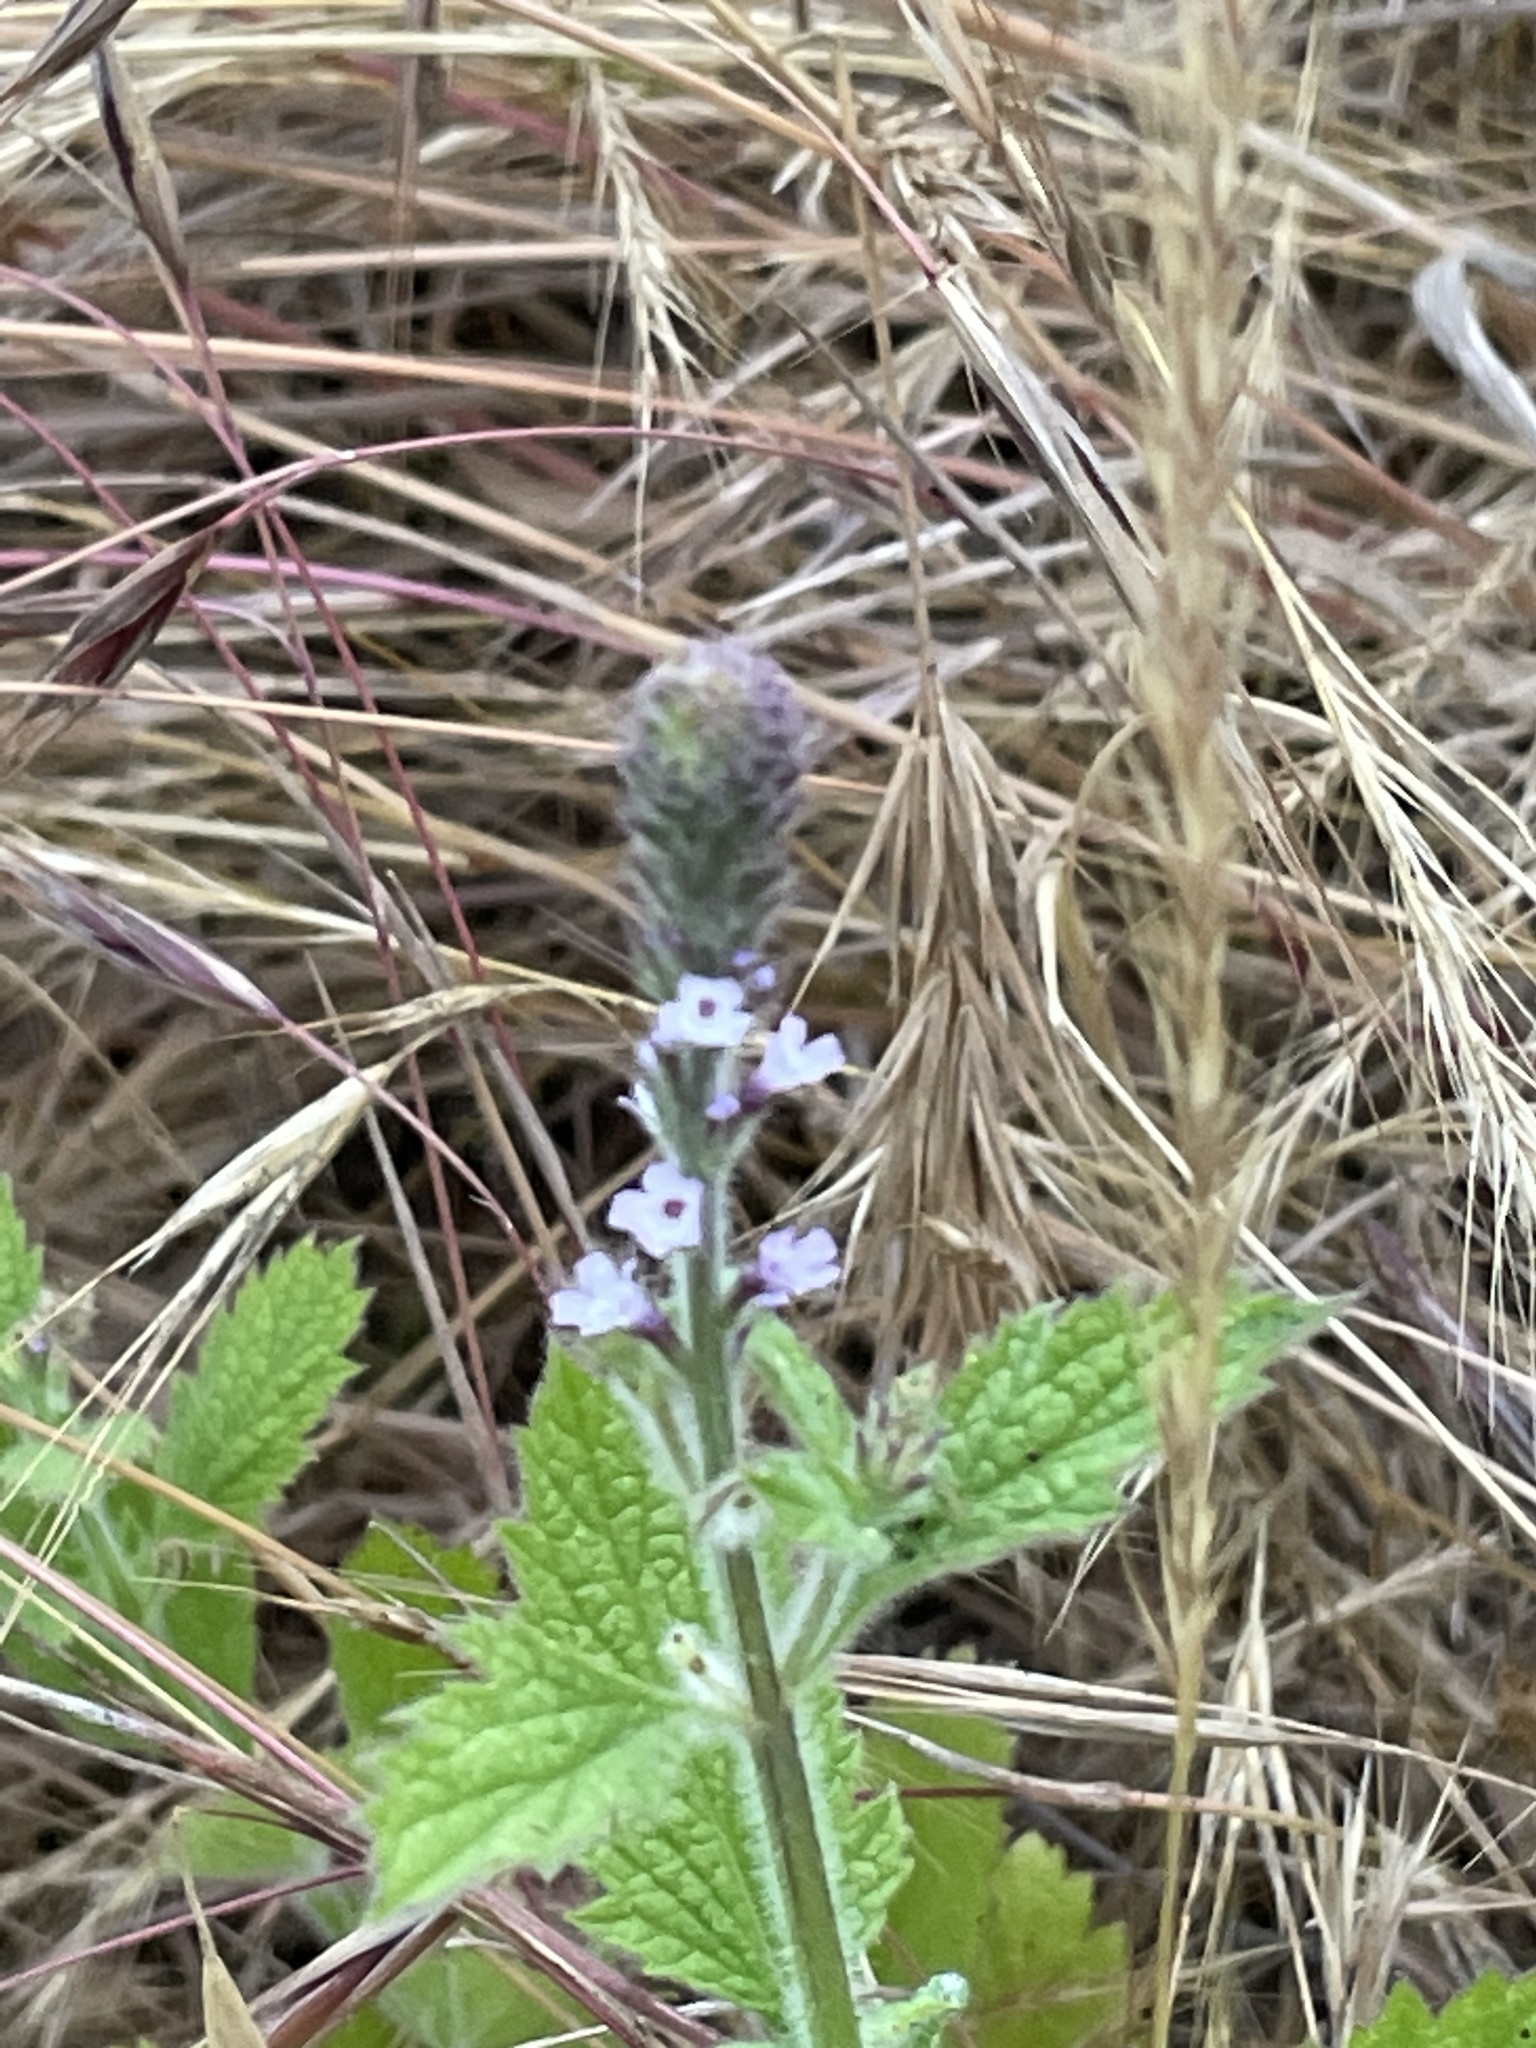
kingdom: Plantae
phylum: Tracheophyta
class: Magnoliopsida
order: Lamiales
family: Verbenaceae
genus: Verbena
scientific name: Verbena lasiostachys
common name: Vervain
